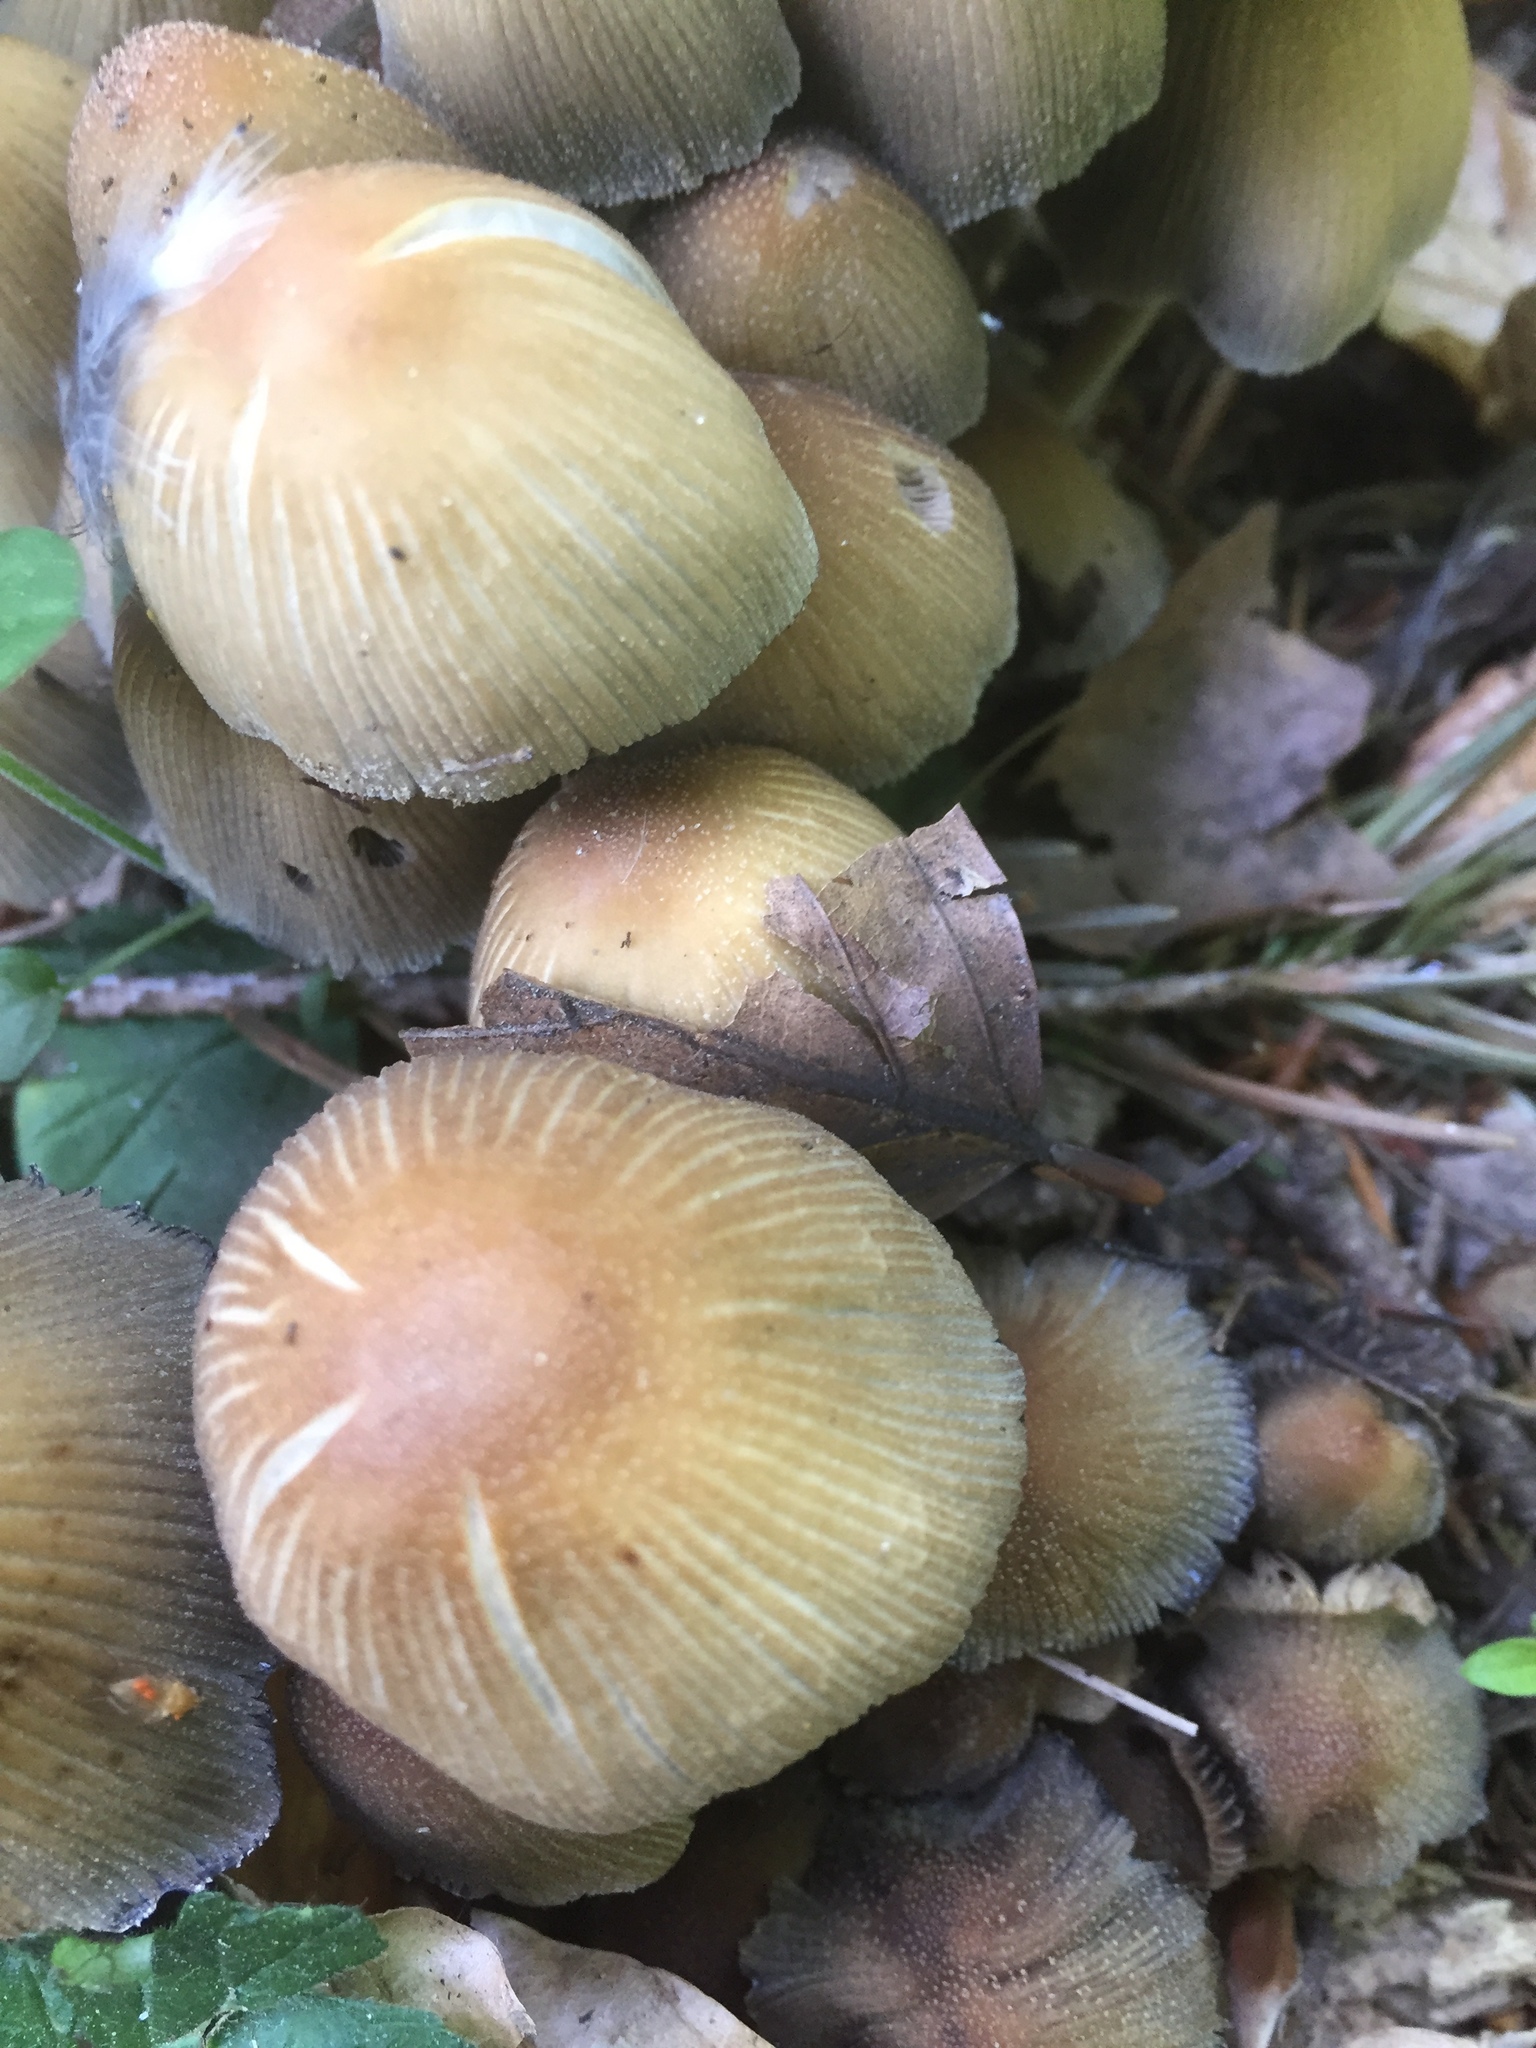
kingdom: Fungi
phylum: Basidiomycota
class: Agaricomycetes
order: Agaricales
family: Psathyrellaceae
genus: Coprinellus
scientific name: Coprinellus micaceus
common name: Glistening ink-cap
